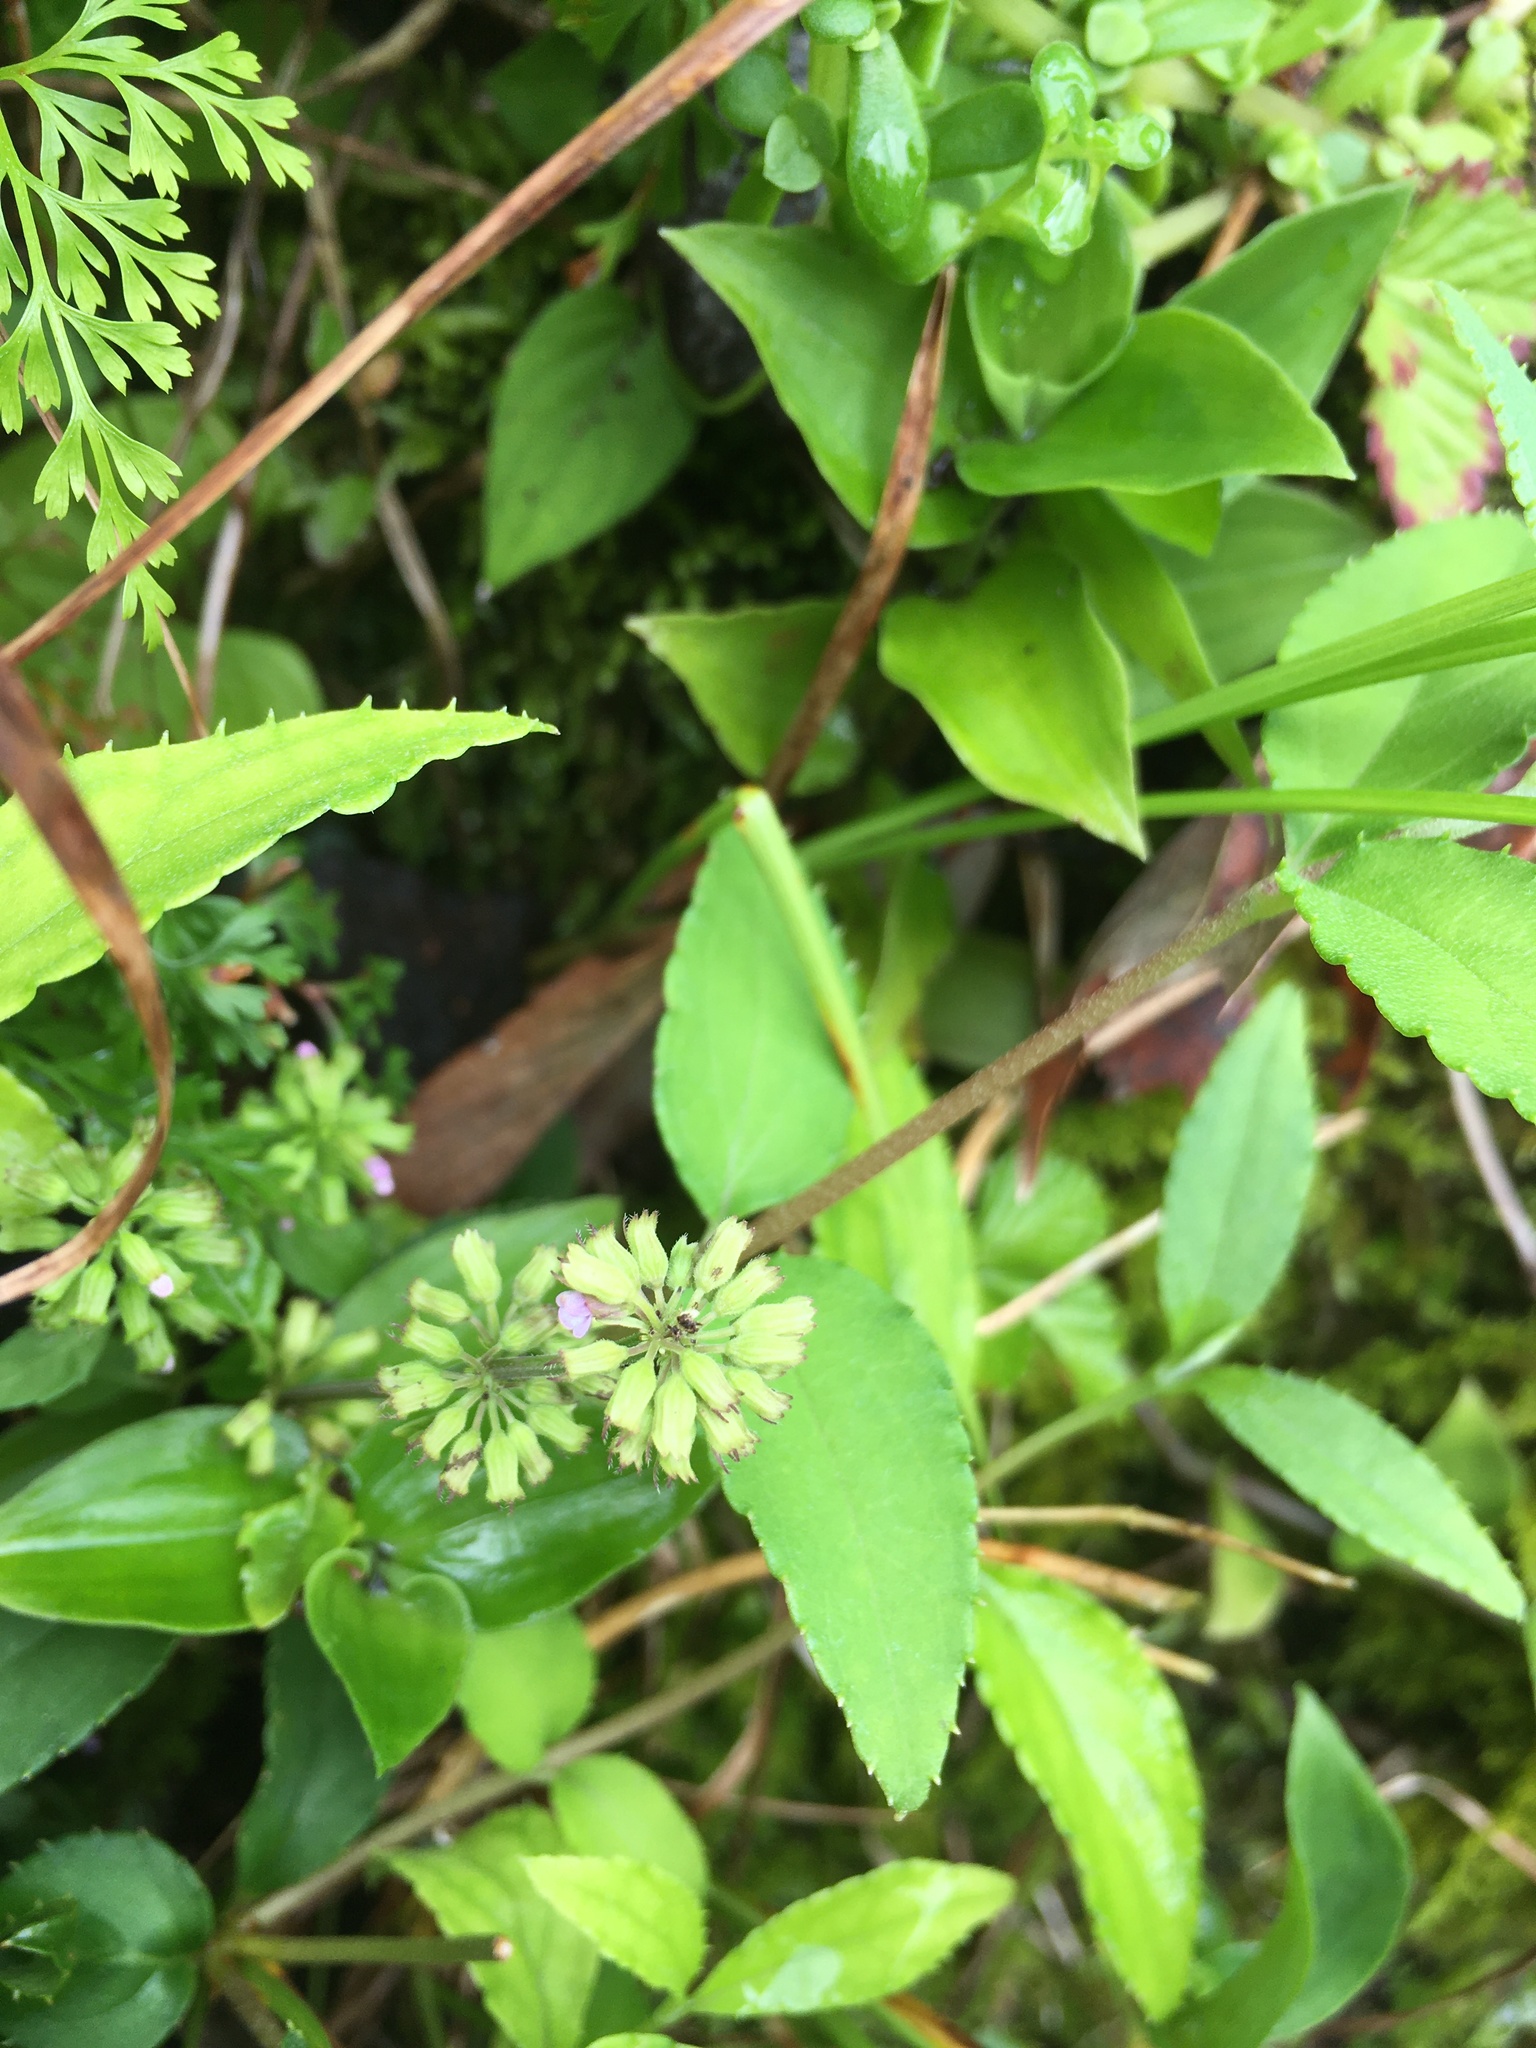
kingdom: Plantae
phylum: Tracheophyta
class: Magnoliopsida
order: Lamiales
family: Lamiaceae
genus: Clinopodium
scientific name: Clinopodium gracile
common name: Slender wild basil
